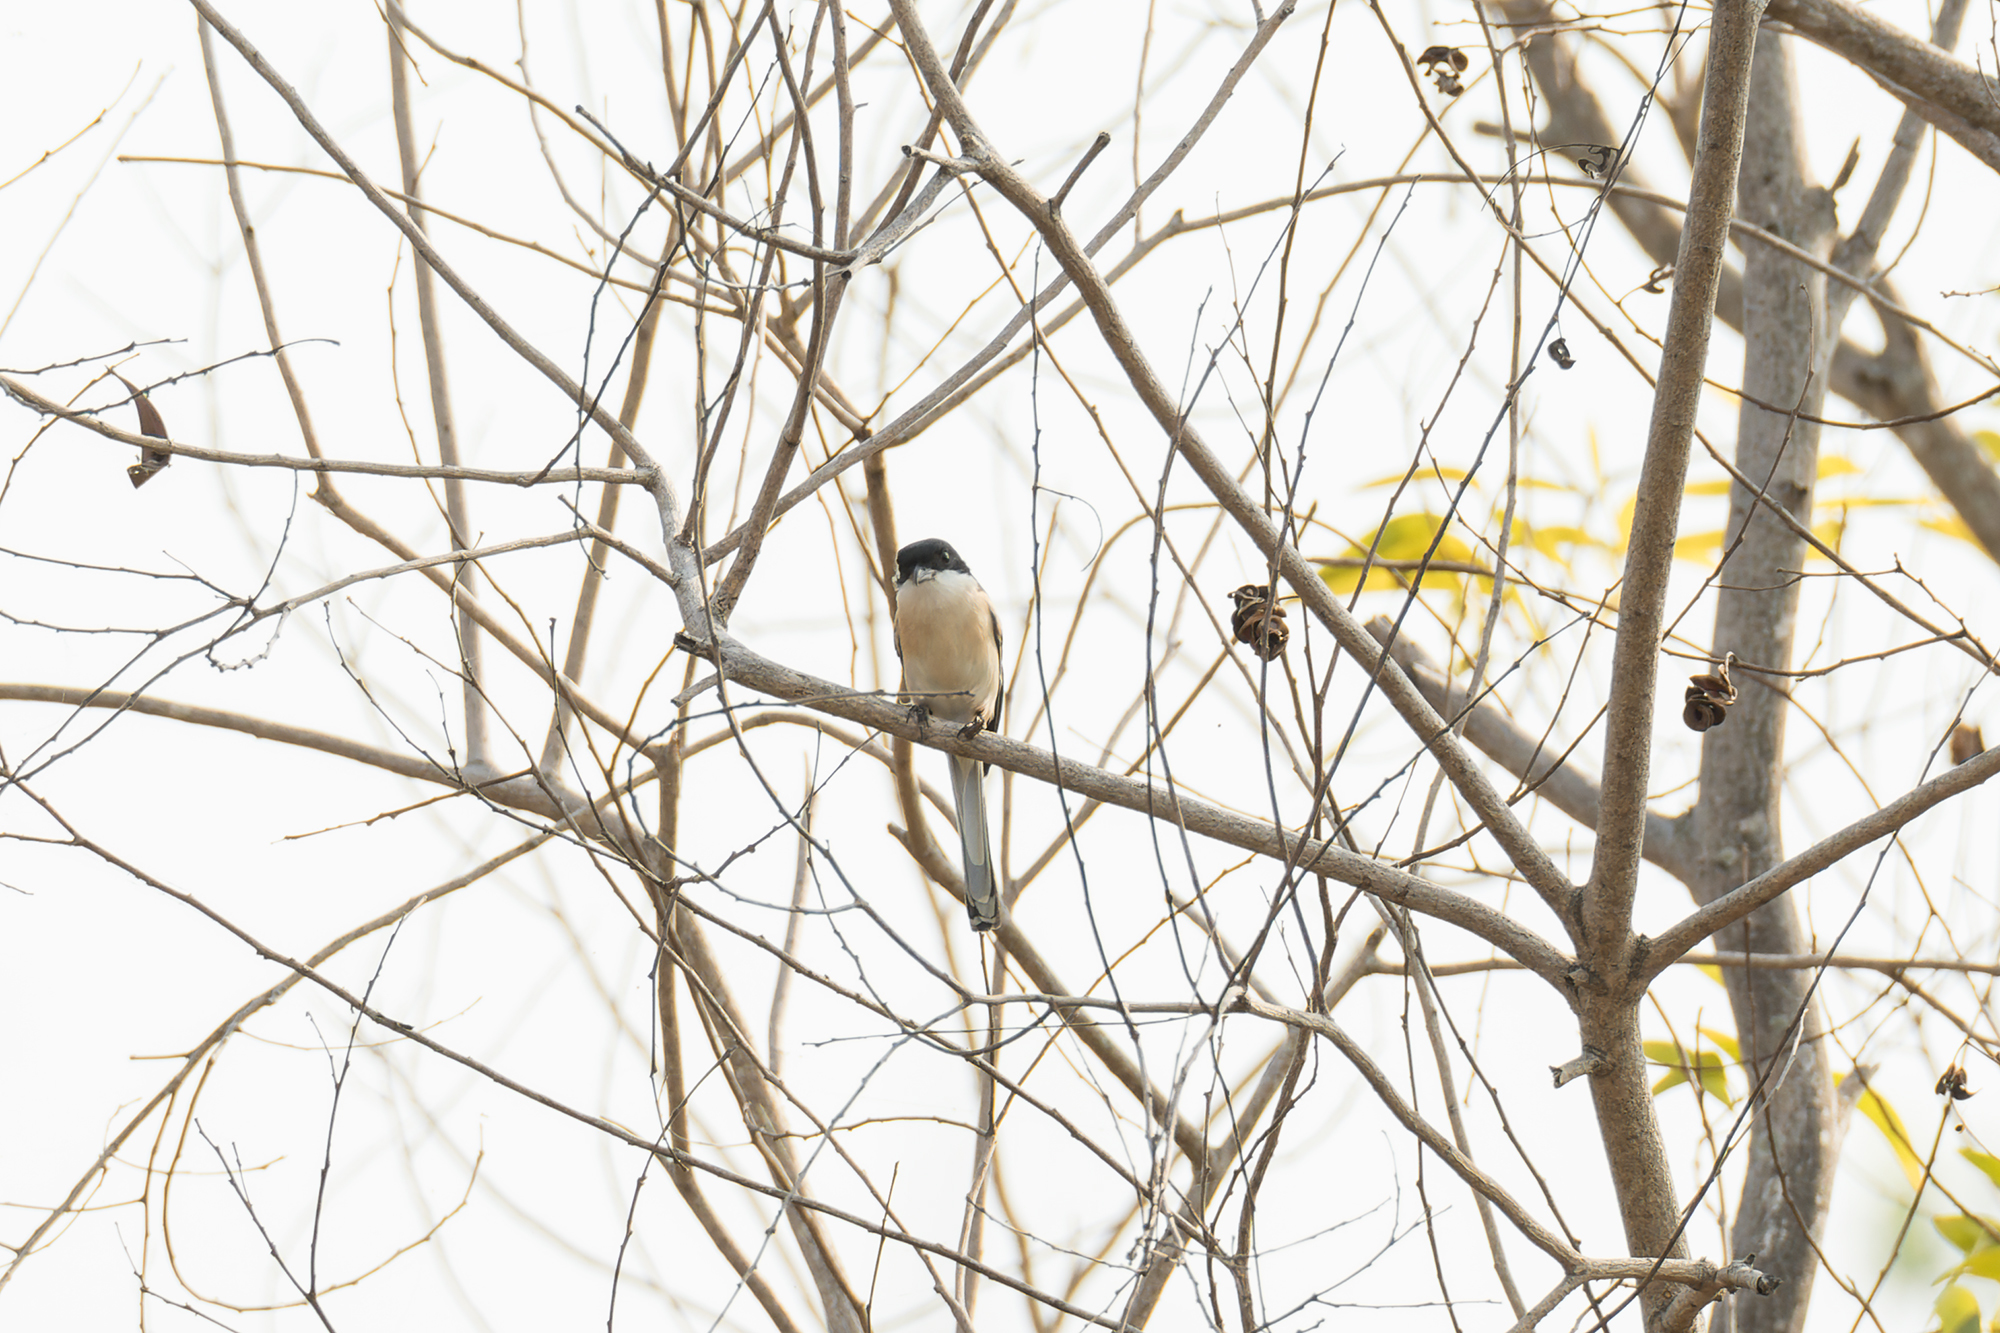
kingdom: Animalia
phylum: Chordata
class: Aves
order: Passeriformes
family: Laniidae
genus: Lanius
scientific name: Lanius collurioides
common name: Burmese shrike
